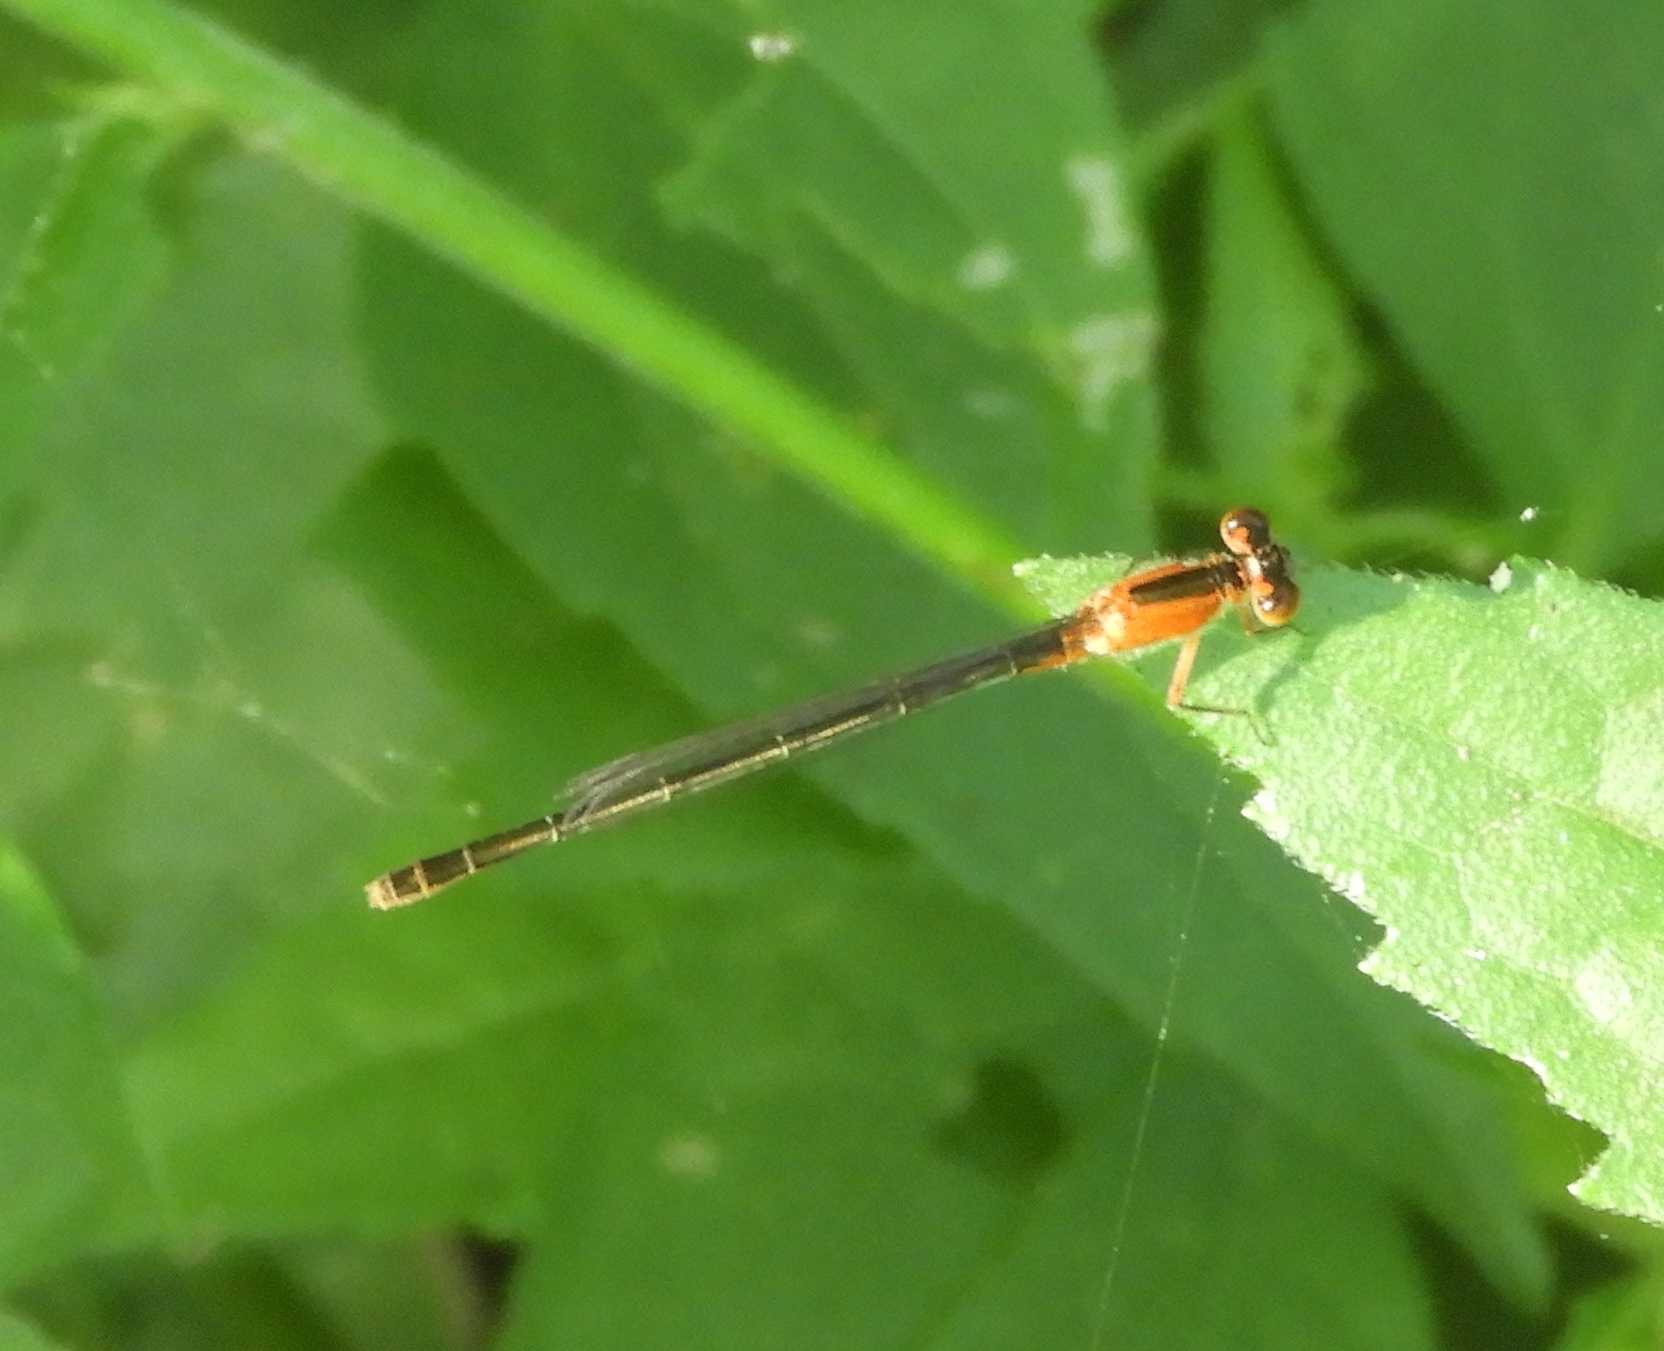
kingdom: Animalia
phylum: Arthropoda
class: Insecta
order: Odonata
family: Coenagrionidae
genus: Ischnura
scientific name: Ischnura ramburii
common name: Rambur's forktail
